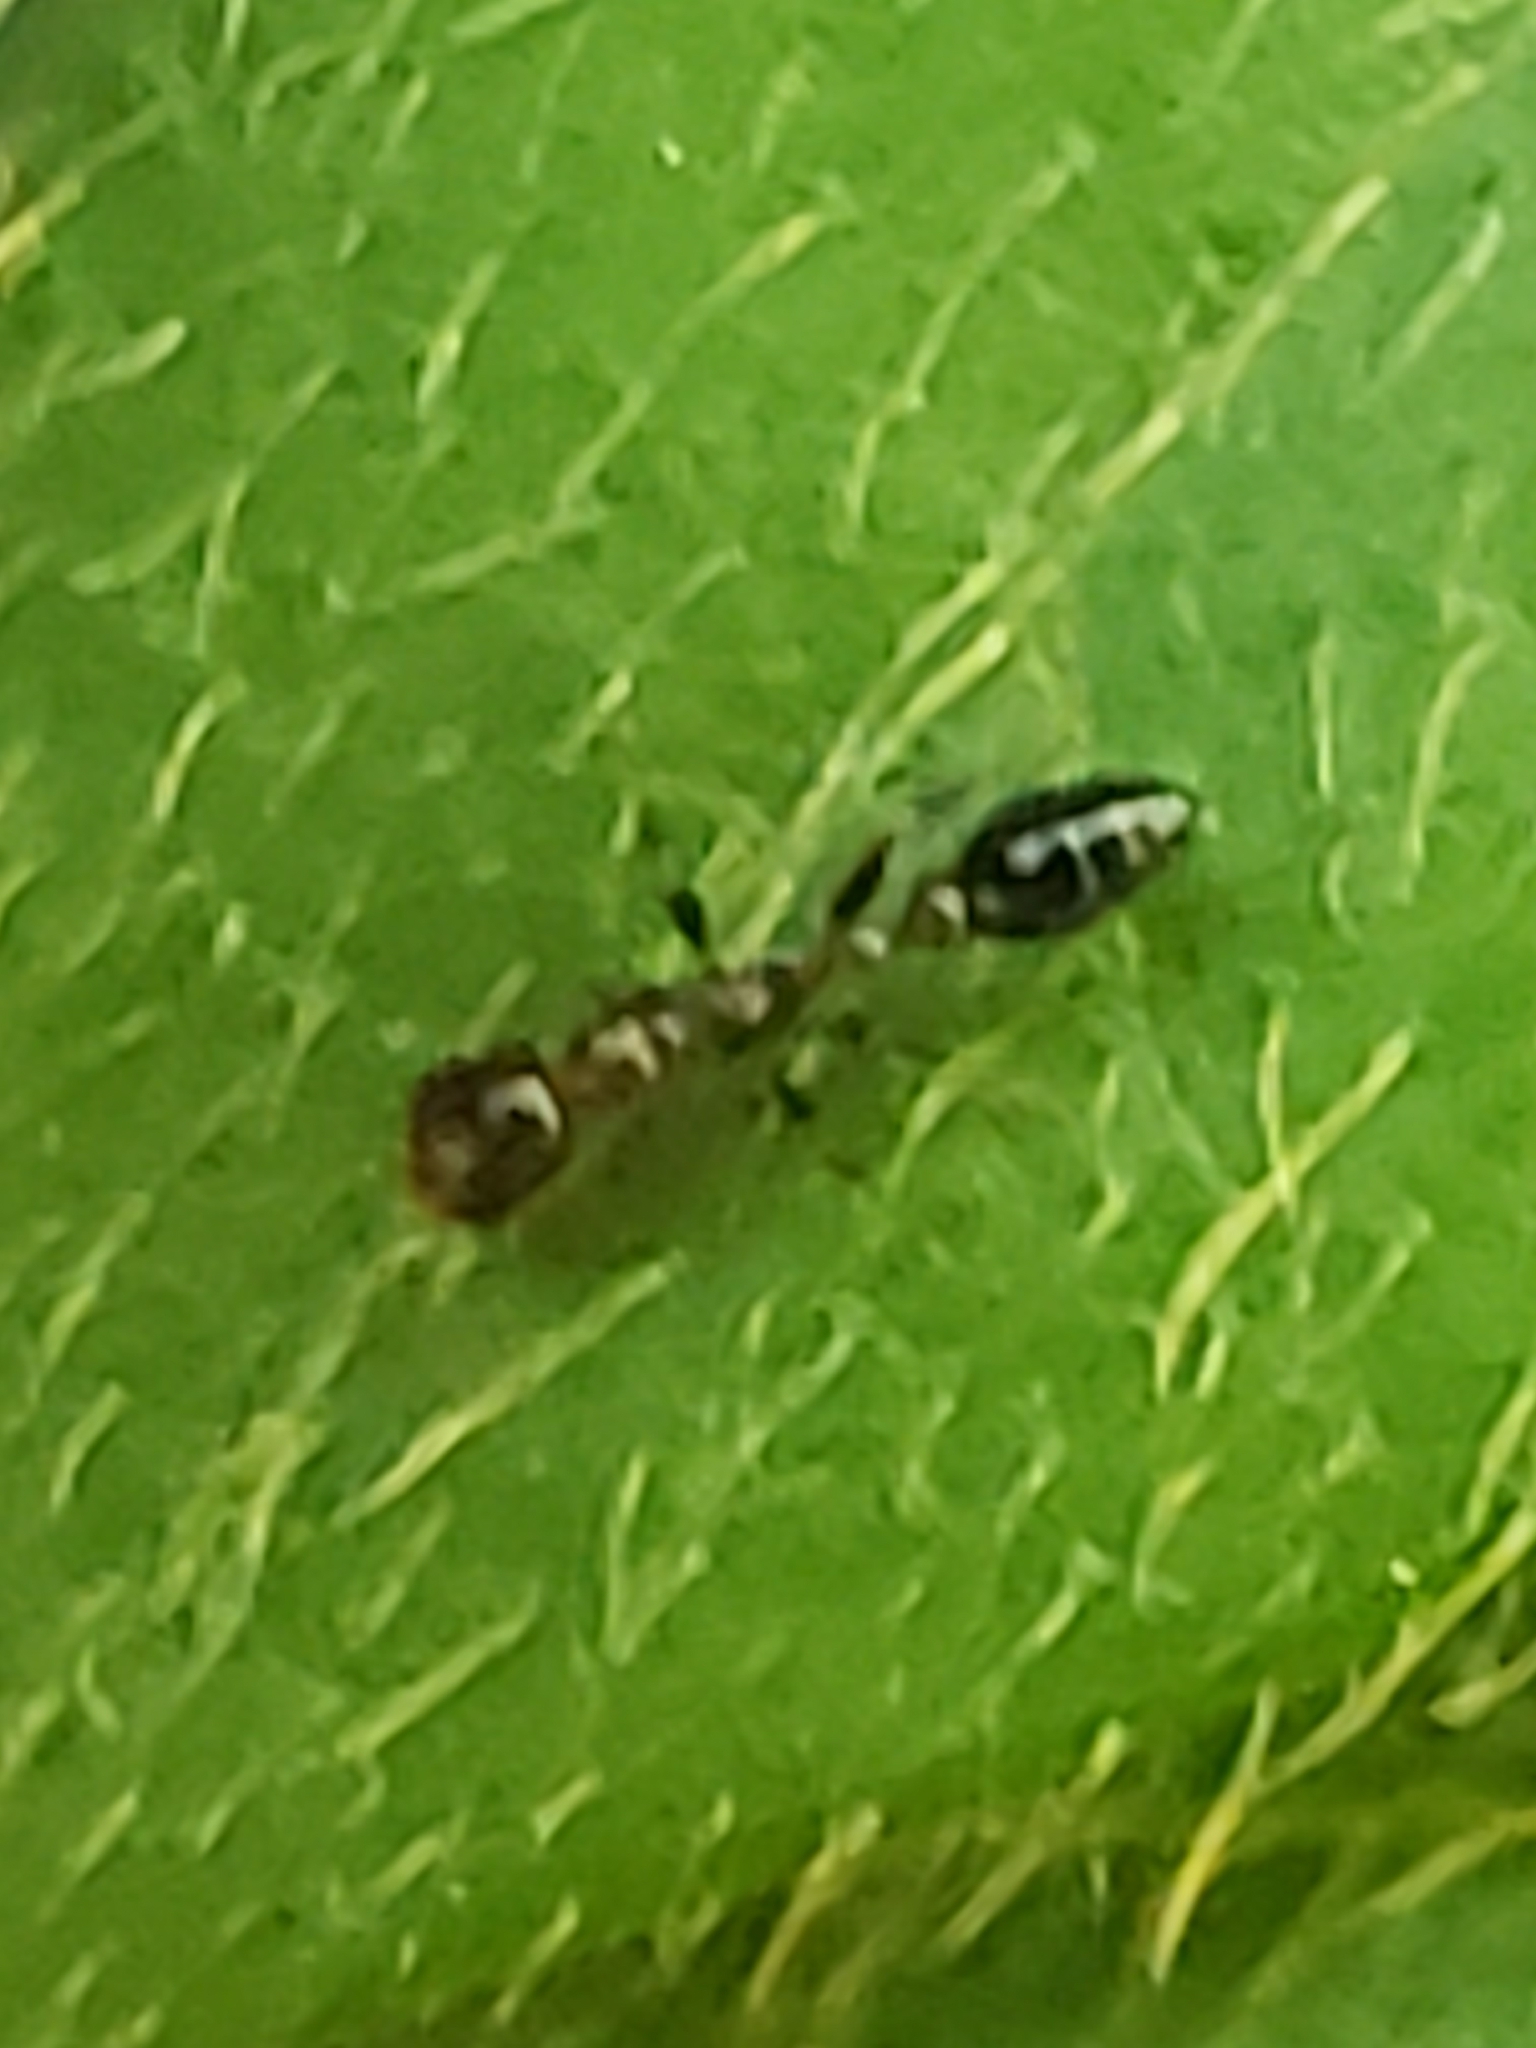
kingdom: Animalia
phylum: Arthropoda
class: Insecta
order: Hymenoptera
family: Formicidae
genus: Pseudomyrmex
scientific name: Pseudomyrmex ejectus
